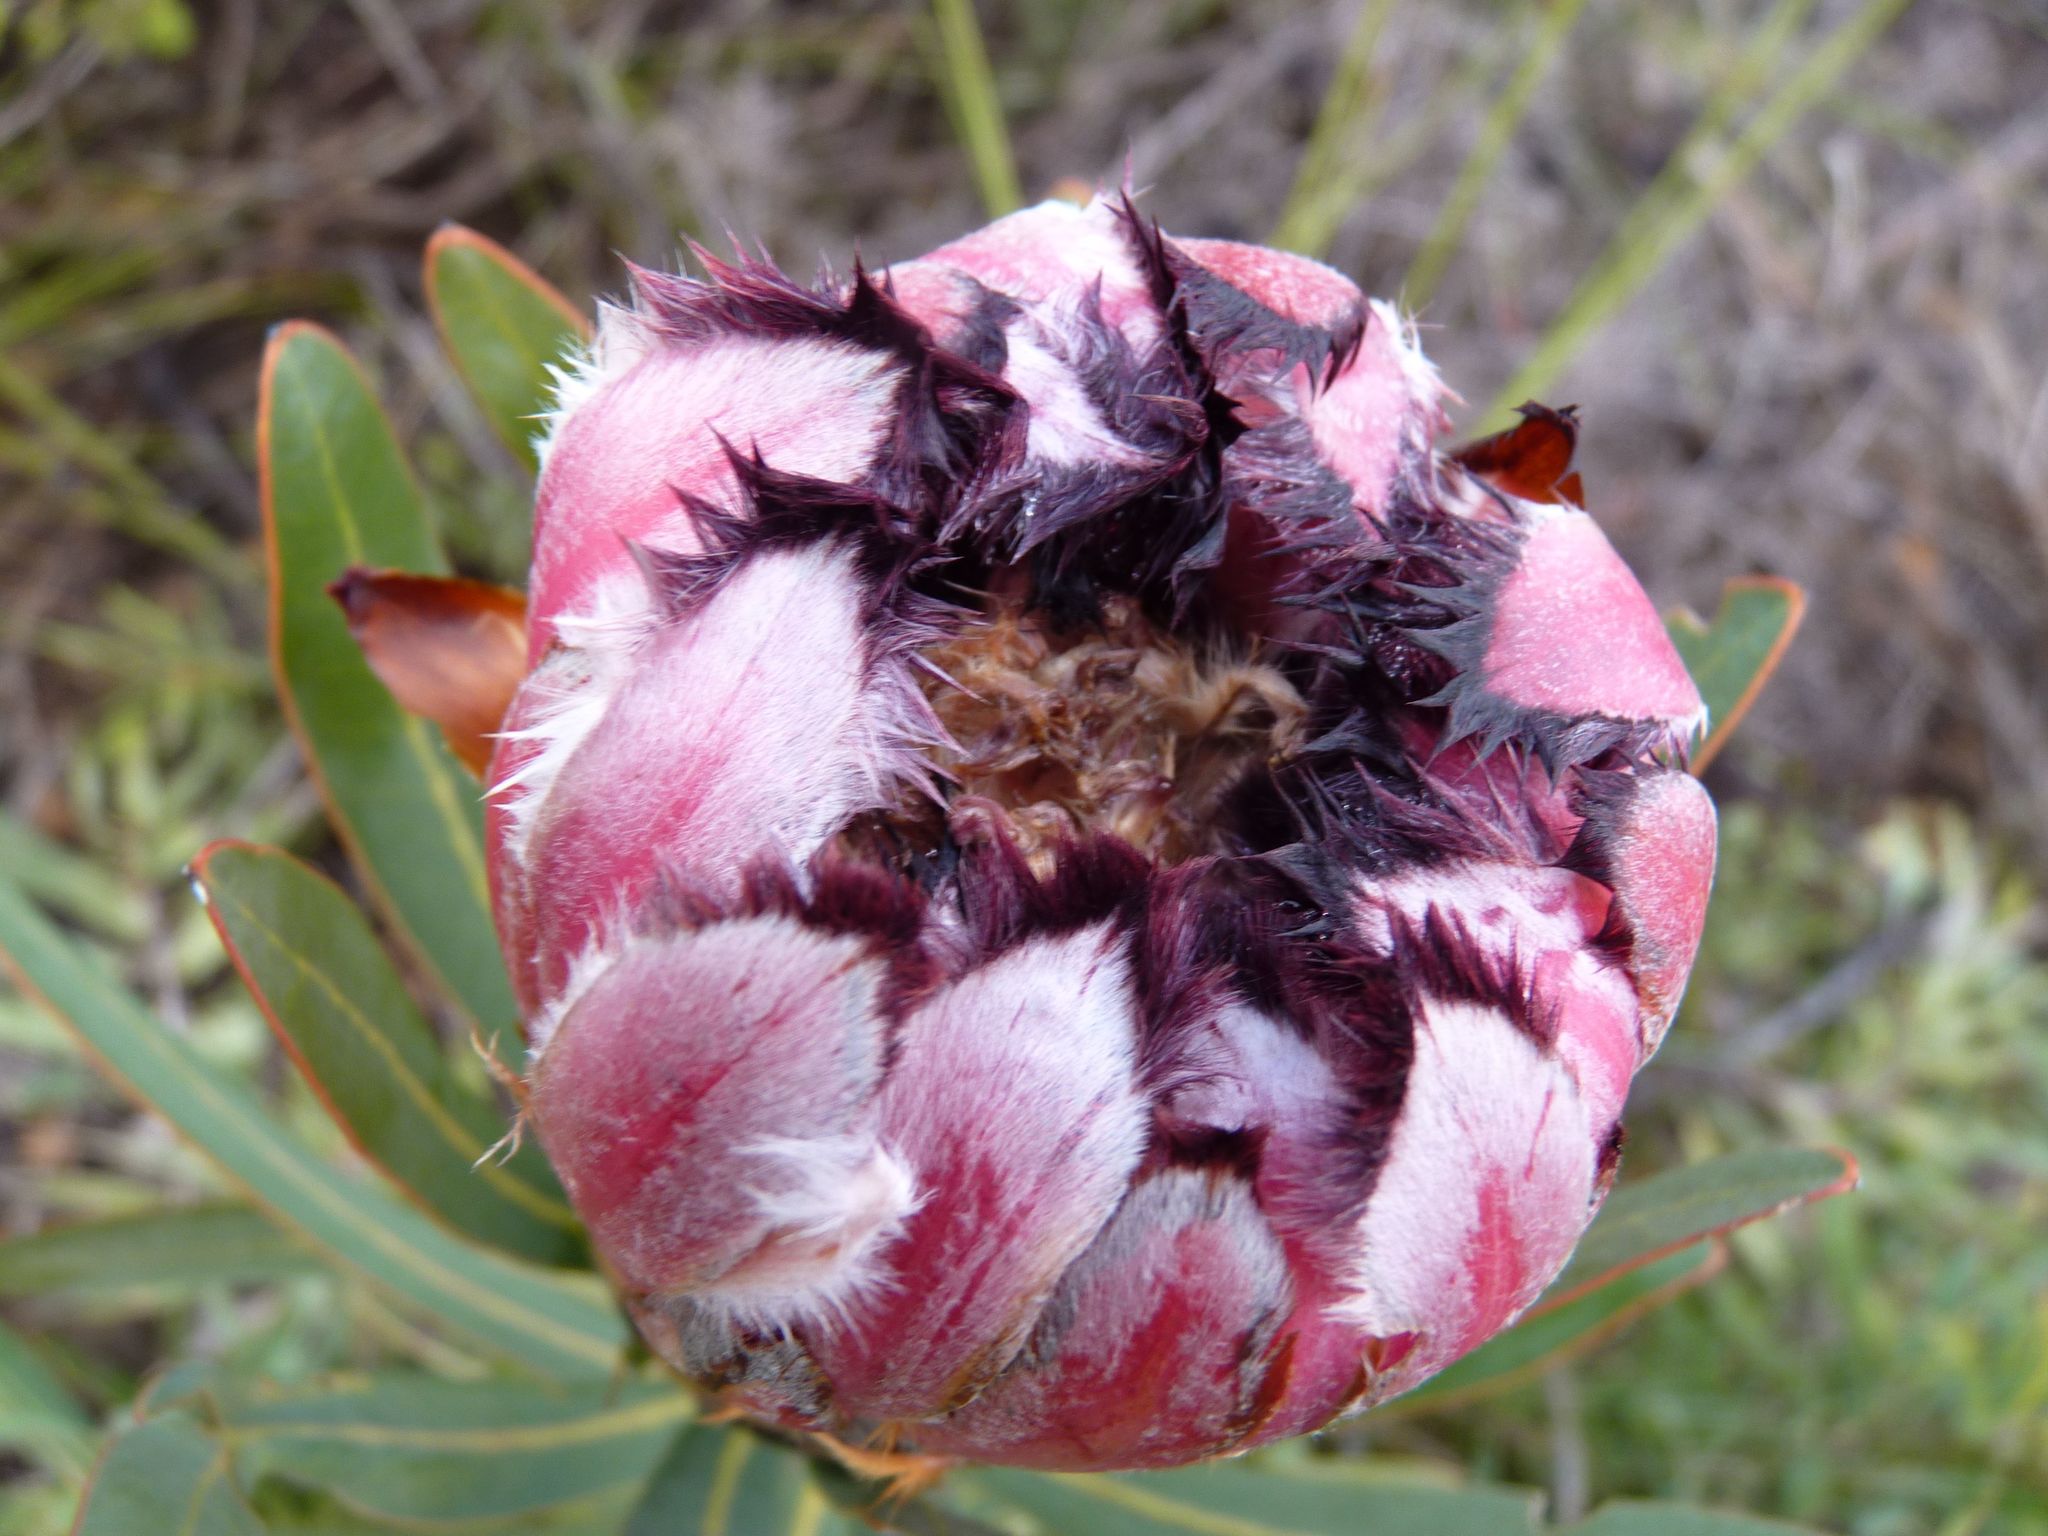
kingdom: Plantae
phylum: Tracheophyta
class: Magnoliopsida
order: Proteales
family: Proteaceae
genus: Protea
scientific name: Protea neriifolia
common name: Blue sugarbush
